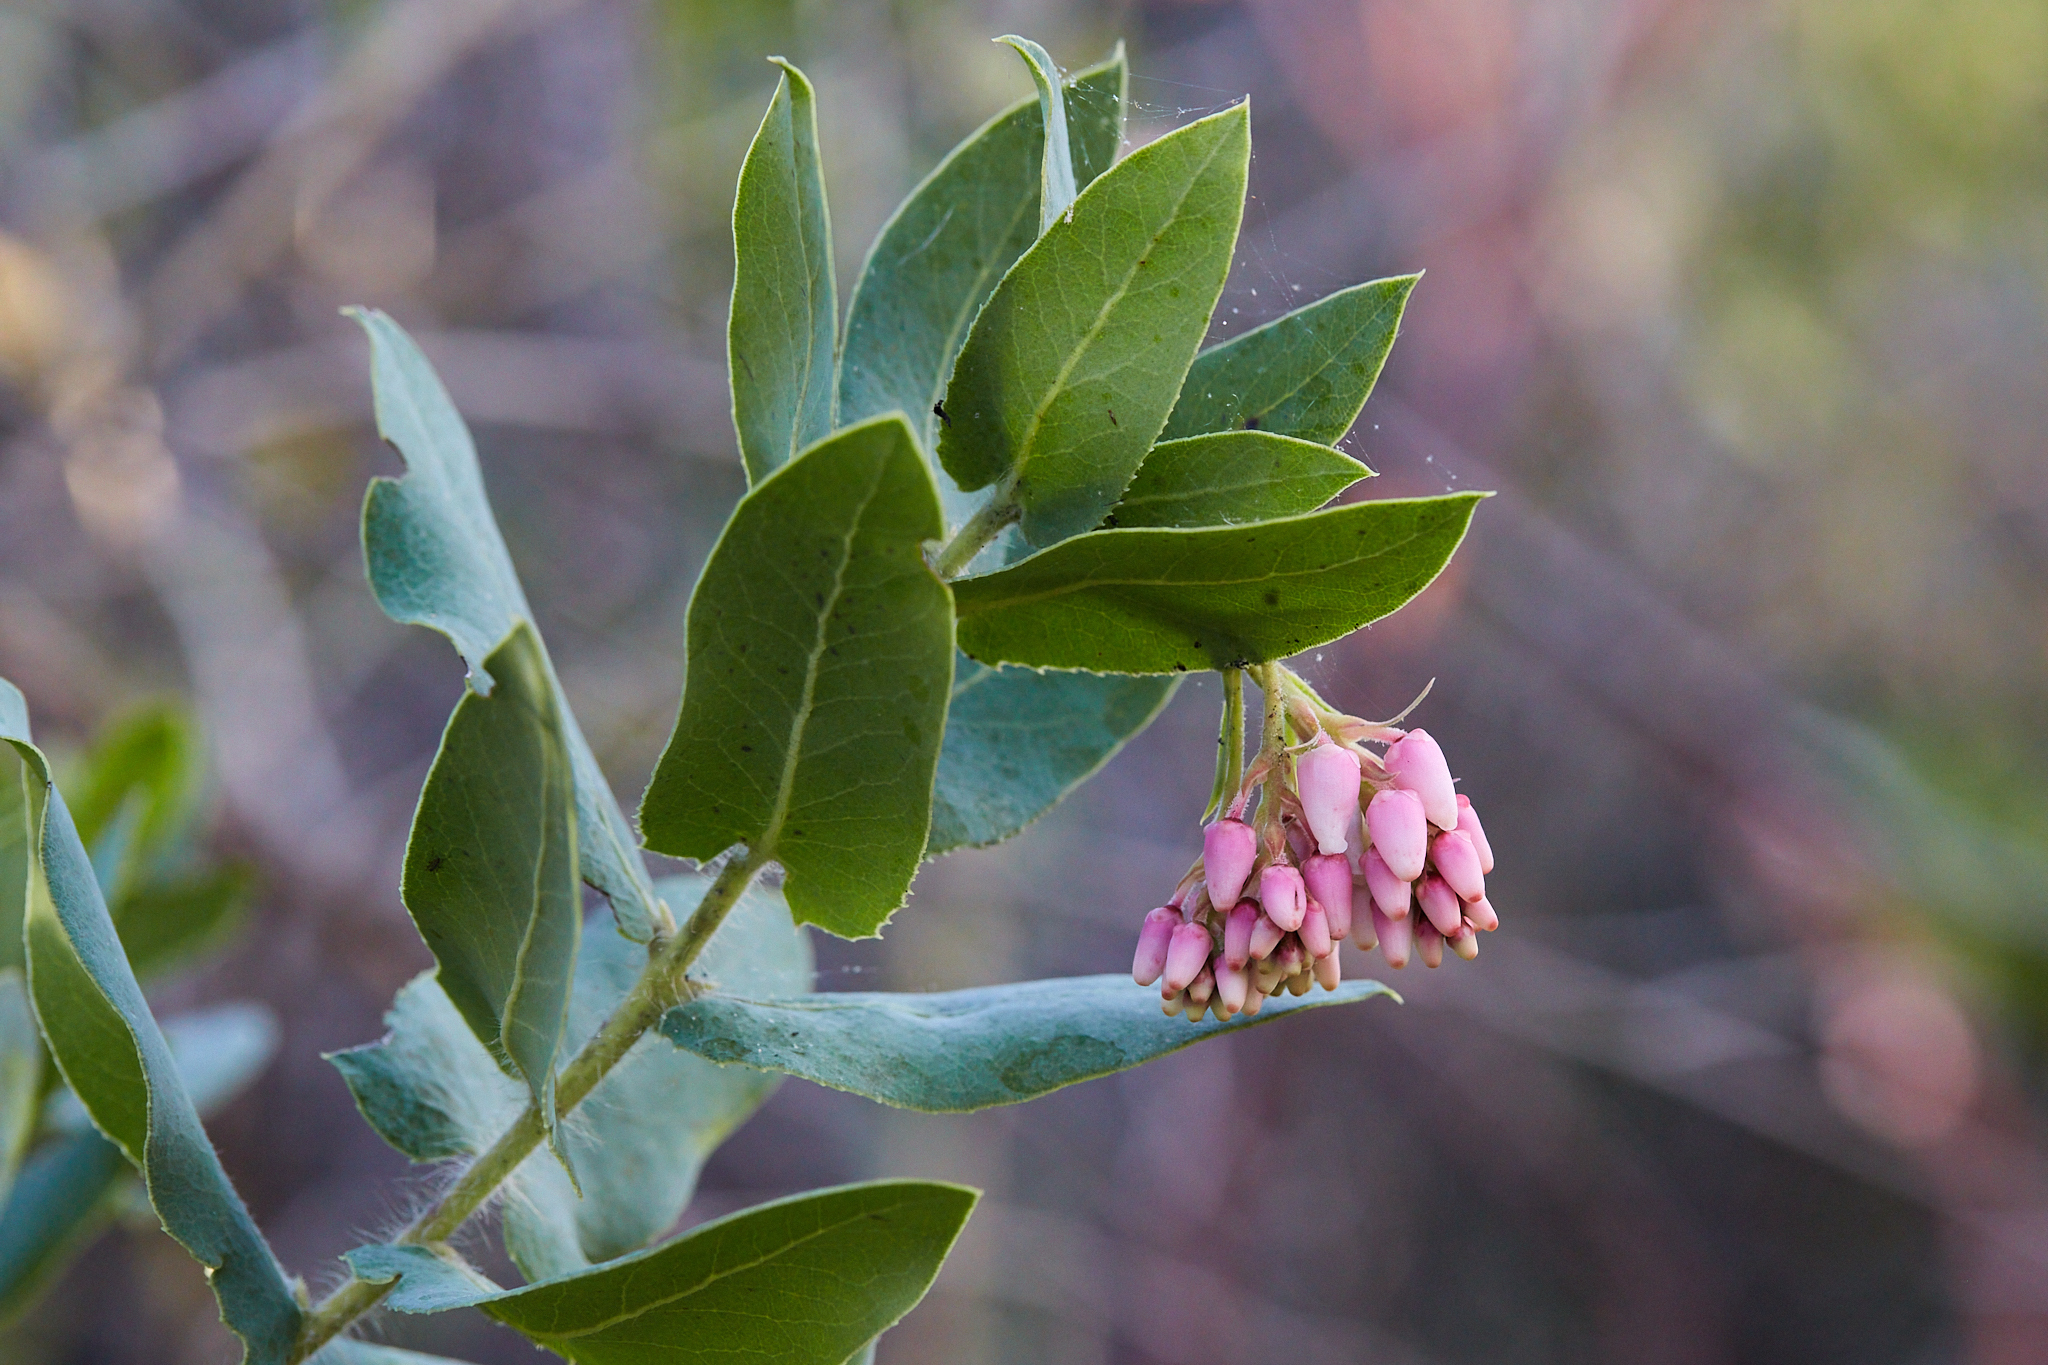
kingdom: Plantae
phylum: Tracheophyta
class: Magnoliopsida
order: Ericales
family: Ericaceae
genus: Arctostaphylos
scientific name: Arctostaphylos andersonii
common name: Santa cruz manzanita
